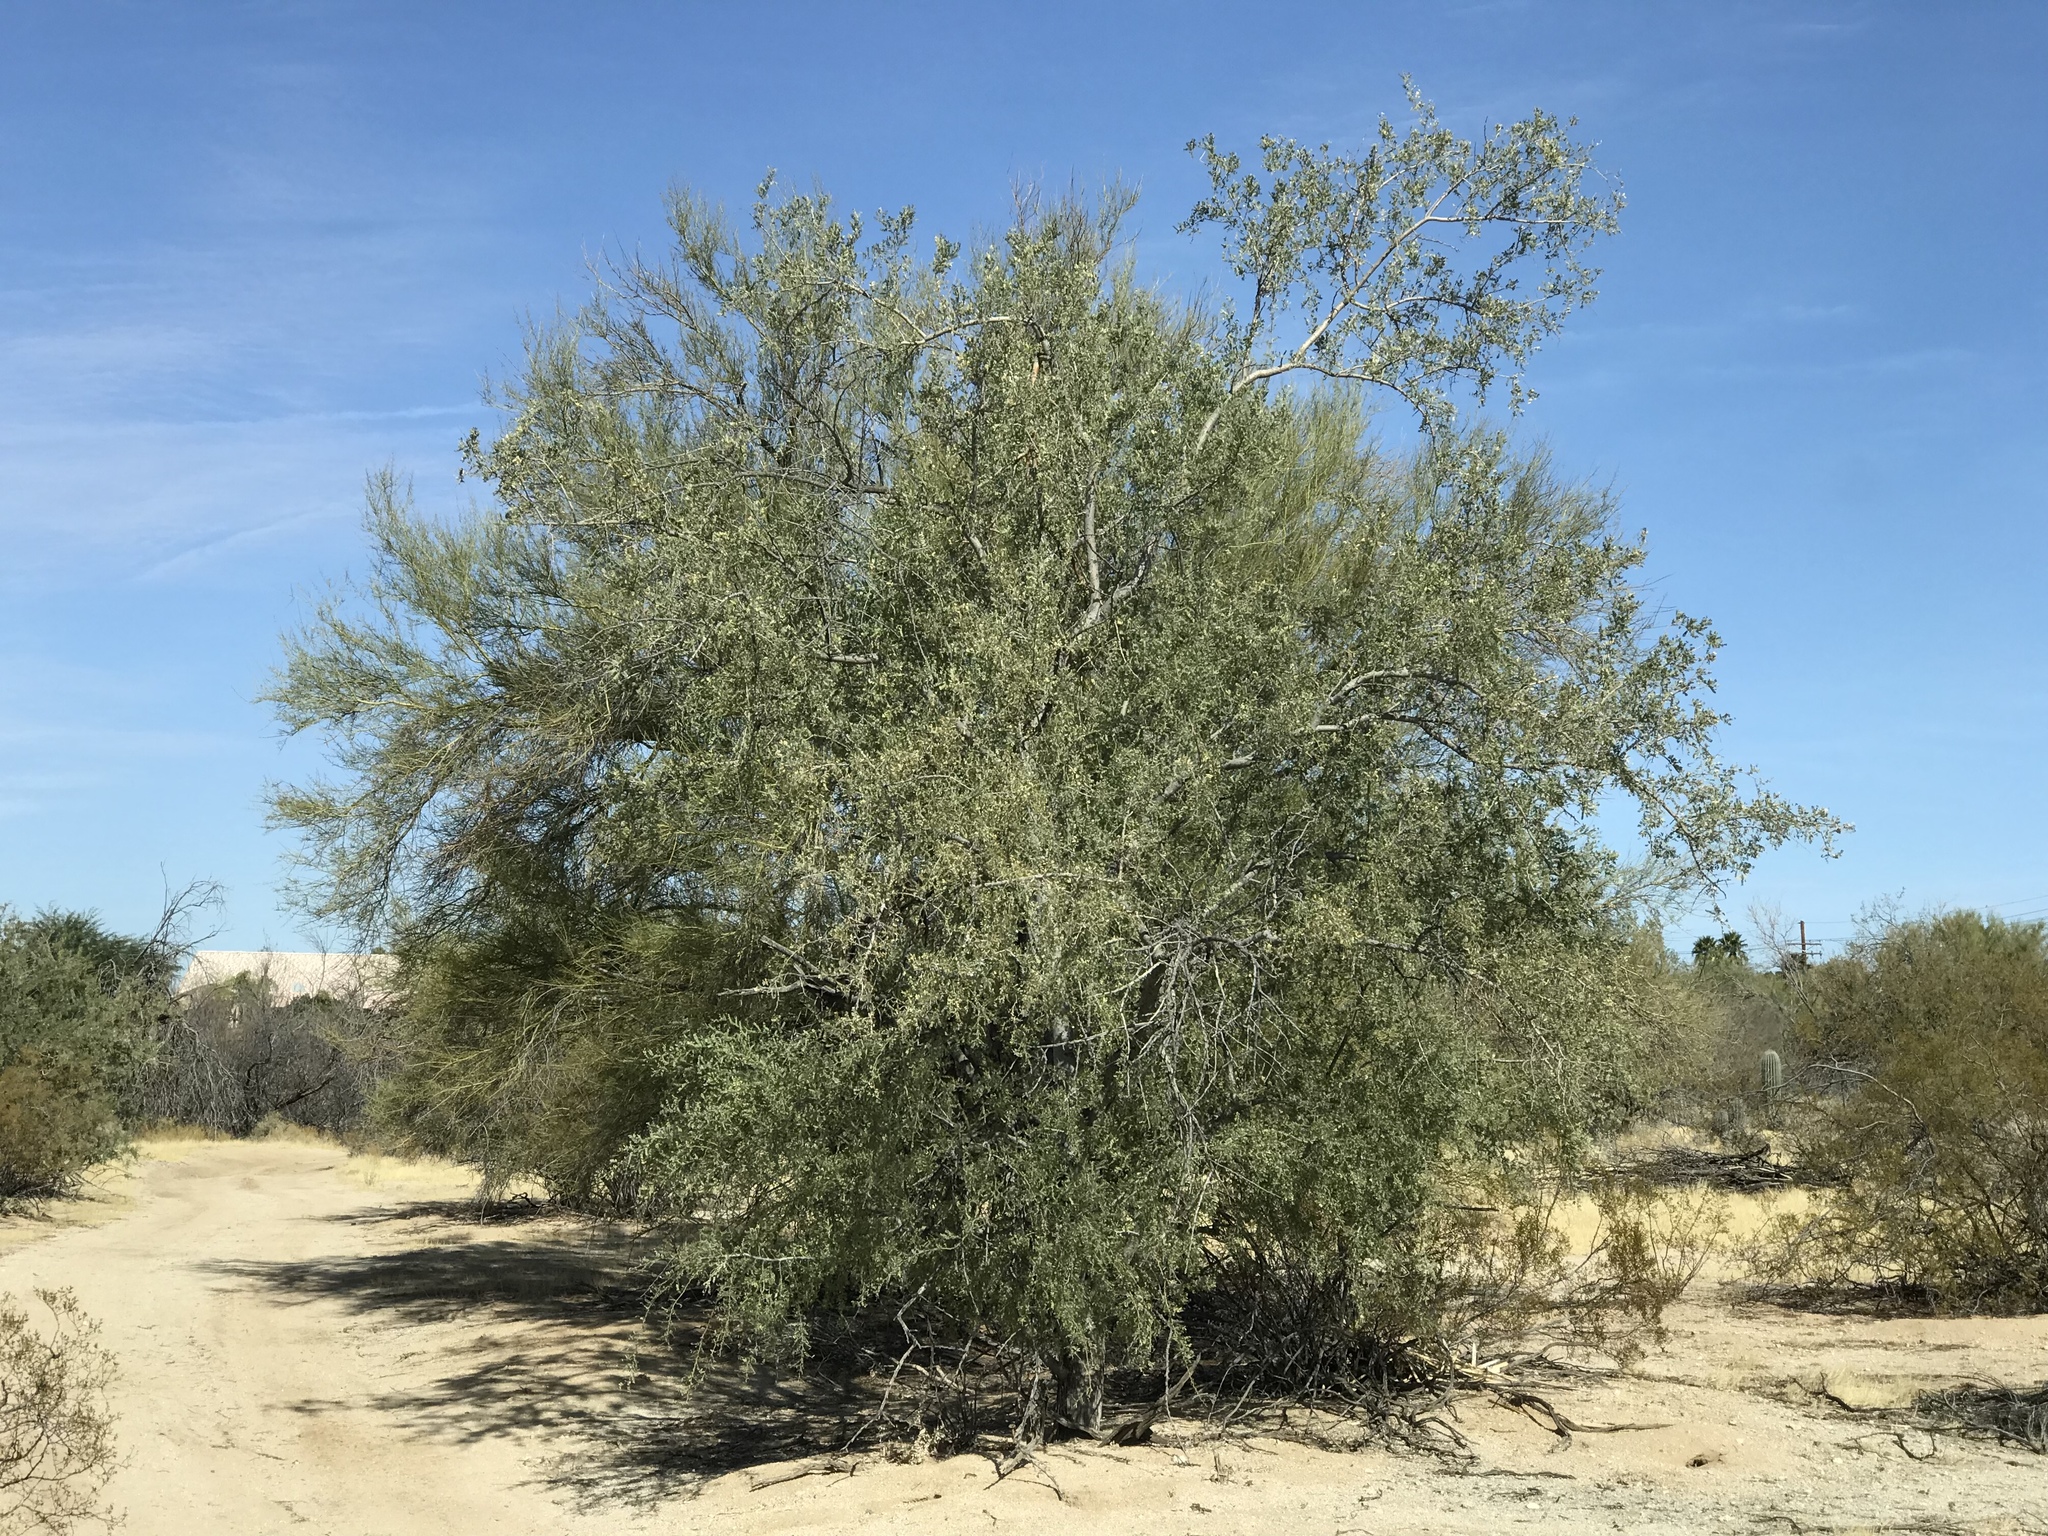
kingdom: Plantae
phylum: Tracheophyta
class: Magnoliopsida
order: Fabales
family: Fabaceae
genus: Olneya
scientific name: Olneya tesota
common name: Desert ironwood
